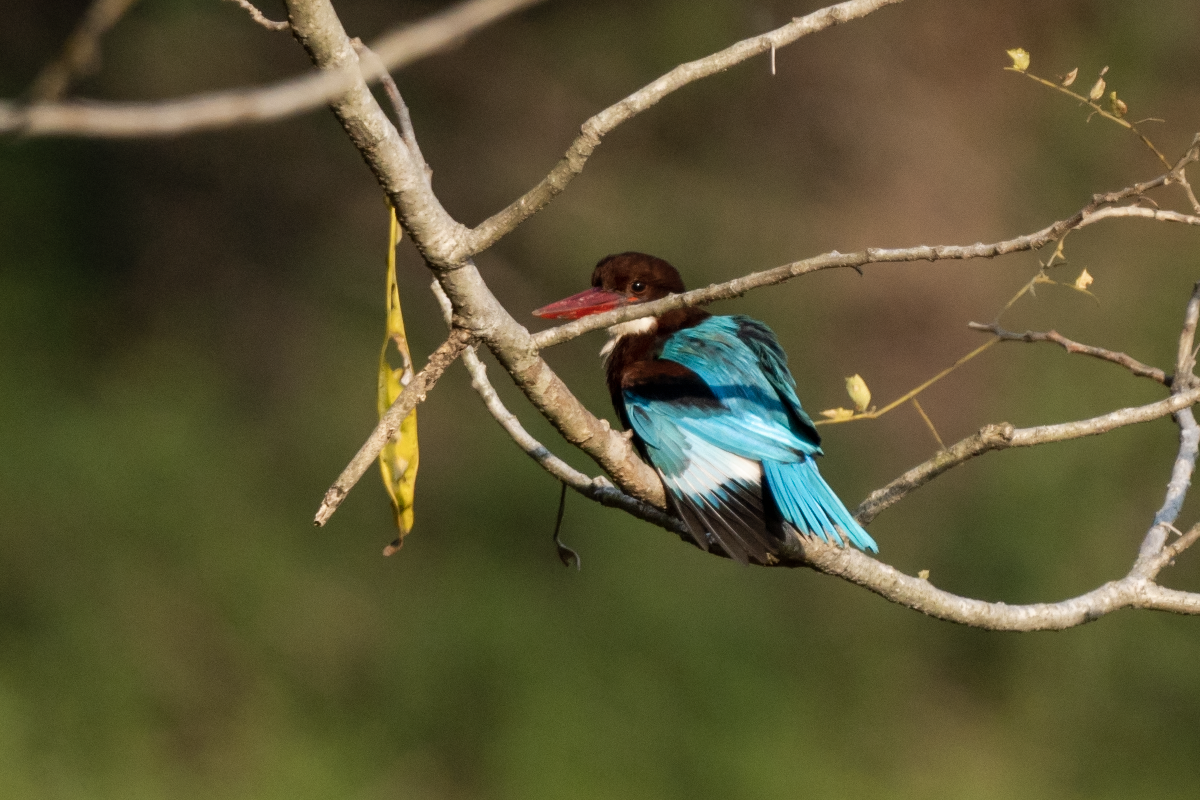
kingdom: Animalia
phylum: Chordata
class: Aves
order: Coraciiformes
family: Alcedinidae
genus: Halcyon
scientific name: Halcyon smyrnensis
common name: White-throated kingfisher
